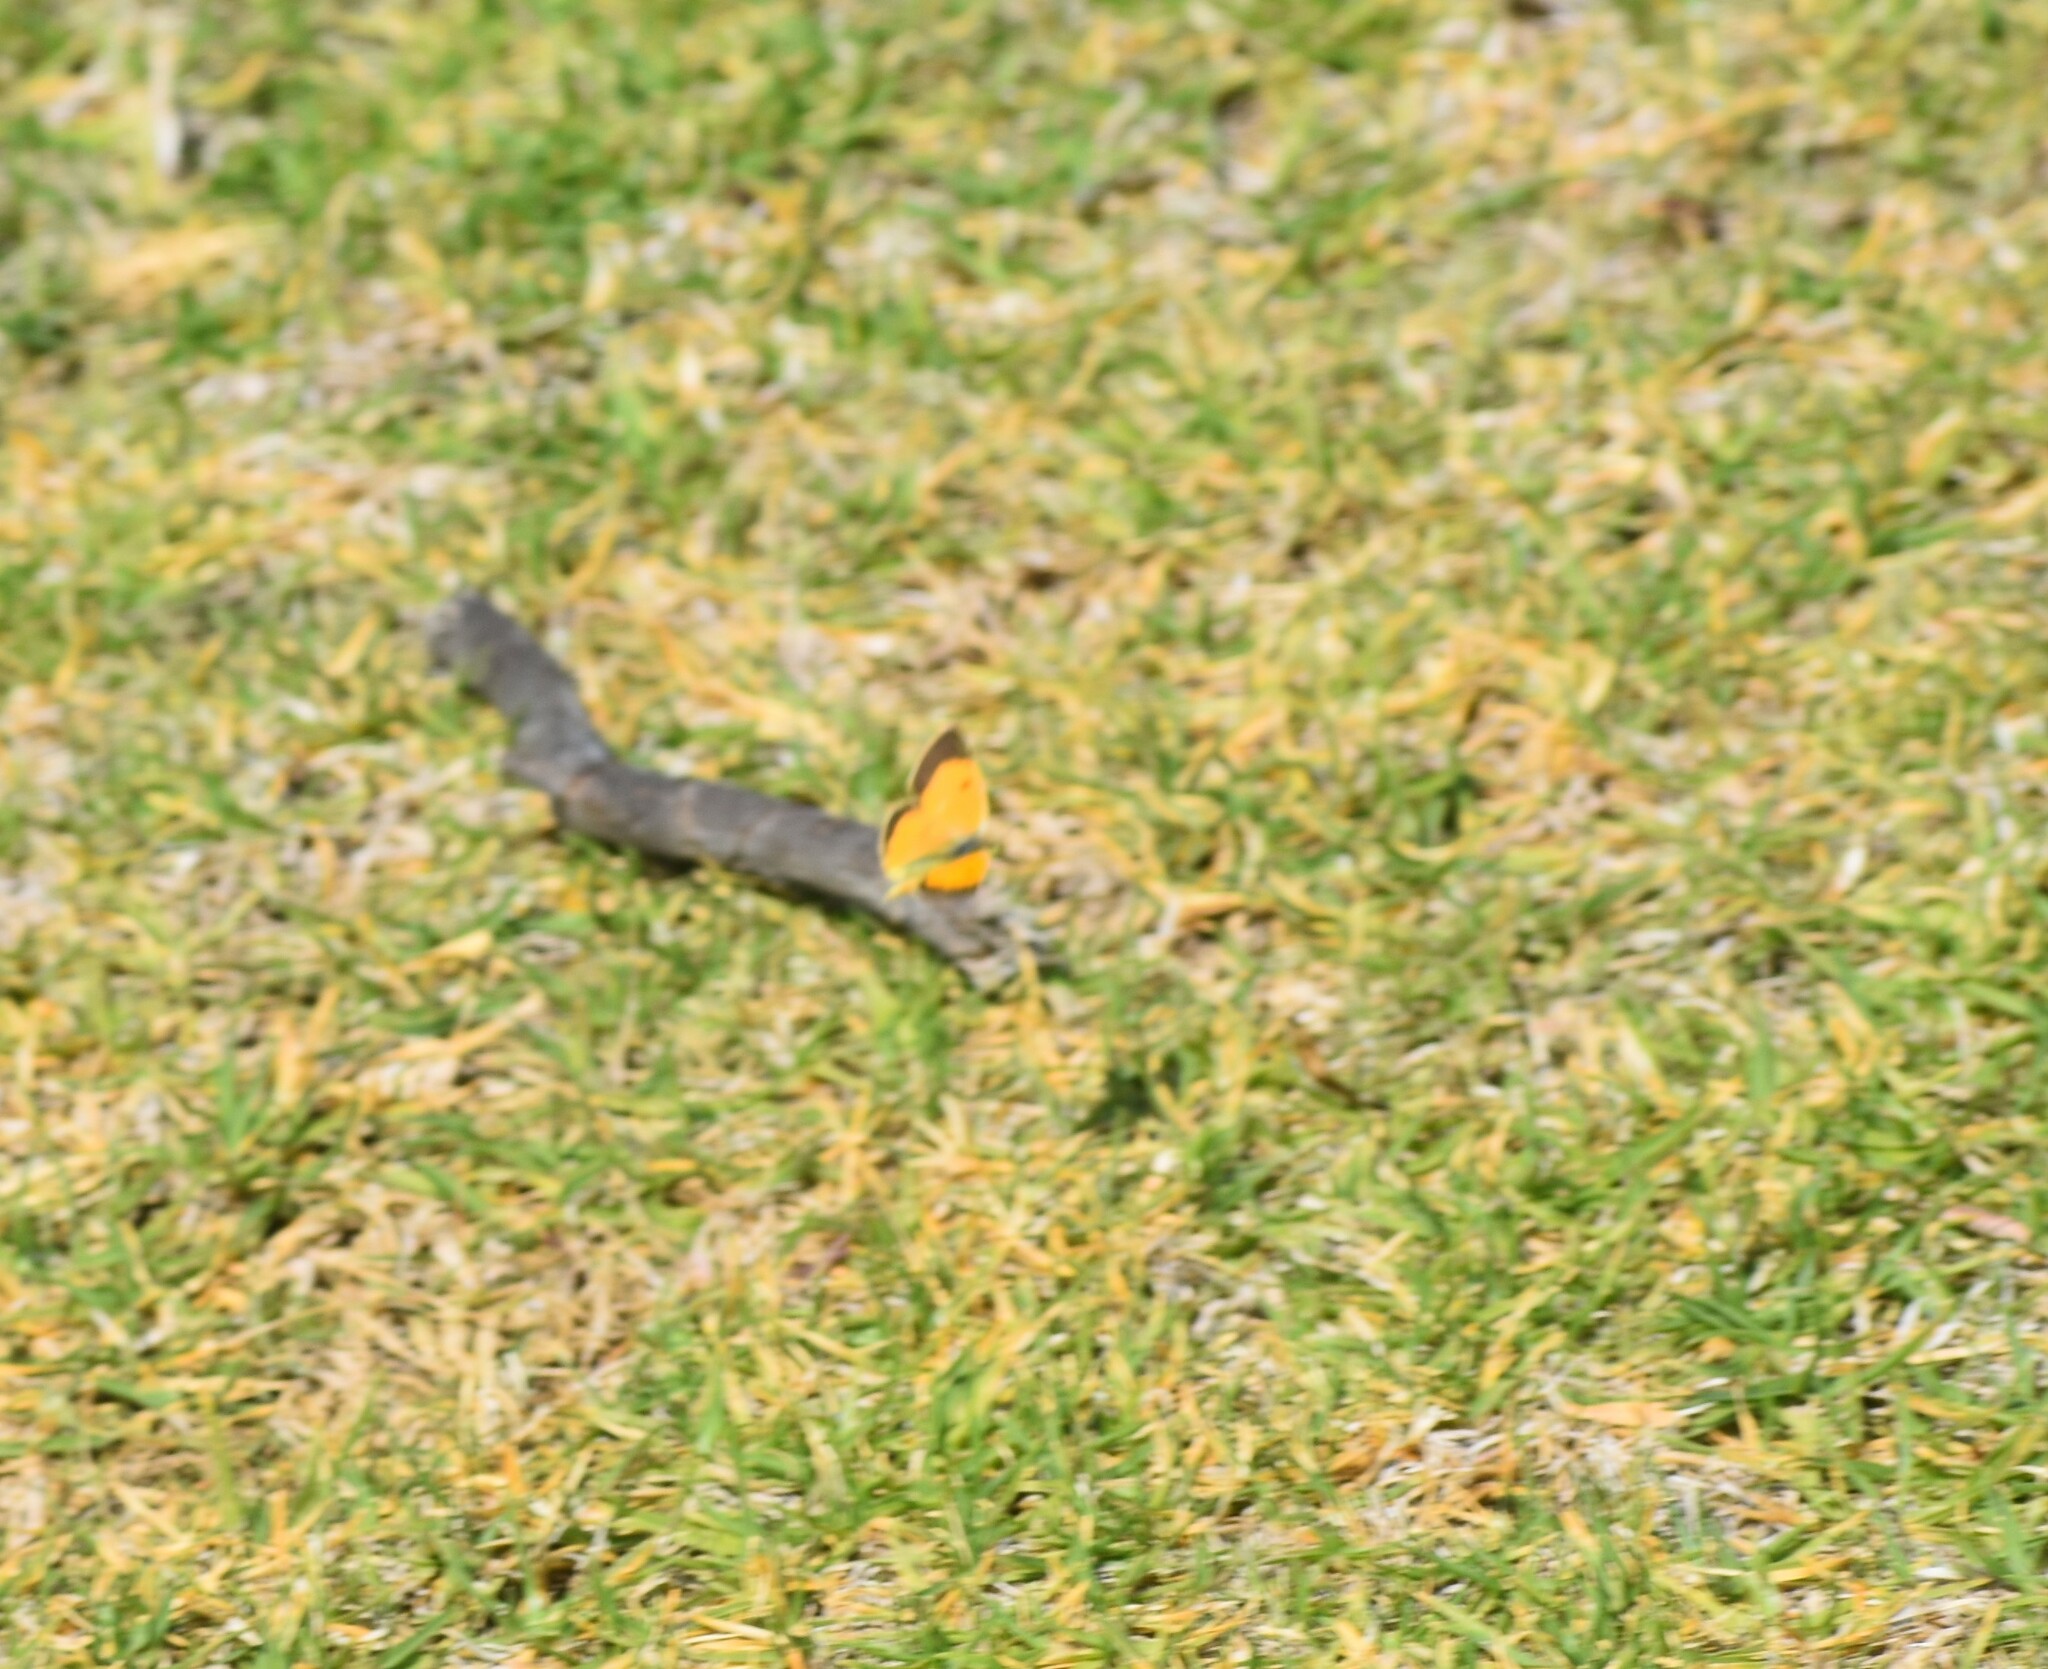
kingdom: Animalia
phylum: Arthropoda
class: Insecta
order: Lepidoptera
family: Pieridae
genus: Colias
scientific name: Colias electo
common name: African clouded yellow
